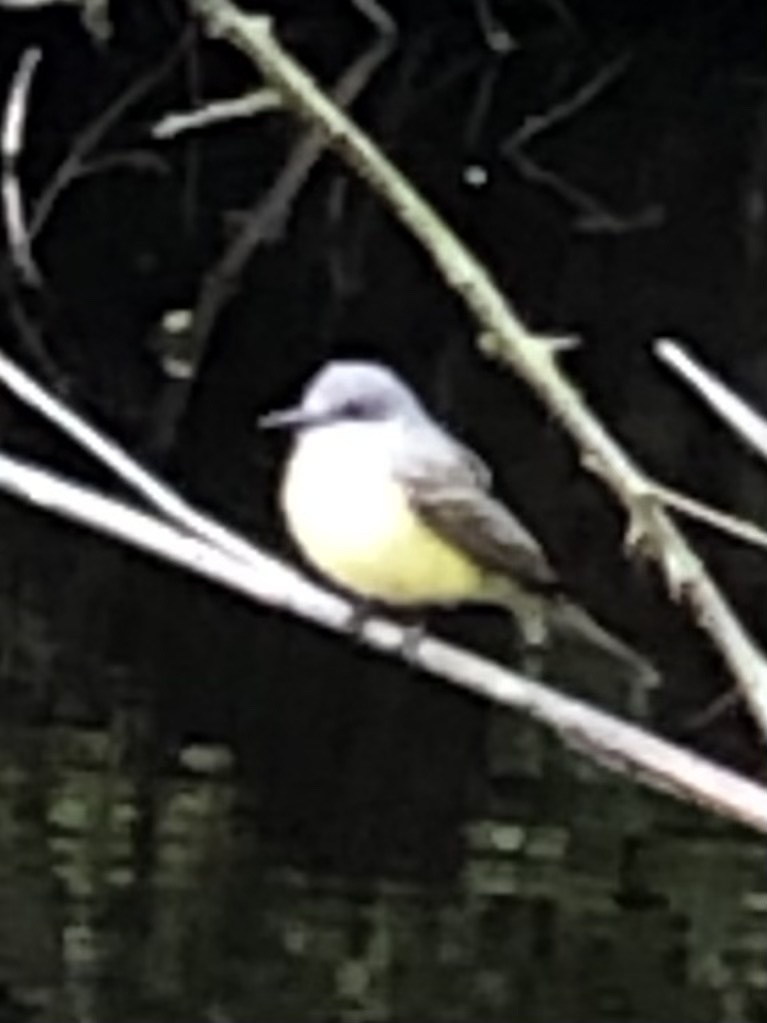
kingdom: Animalia
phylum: Chordata
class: Aves
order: Passeriformes
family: Tyrannidae
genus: Tyrannus
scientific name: Tyrannus melancholicus
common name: Tropical kingbird
